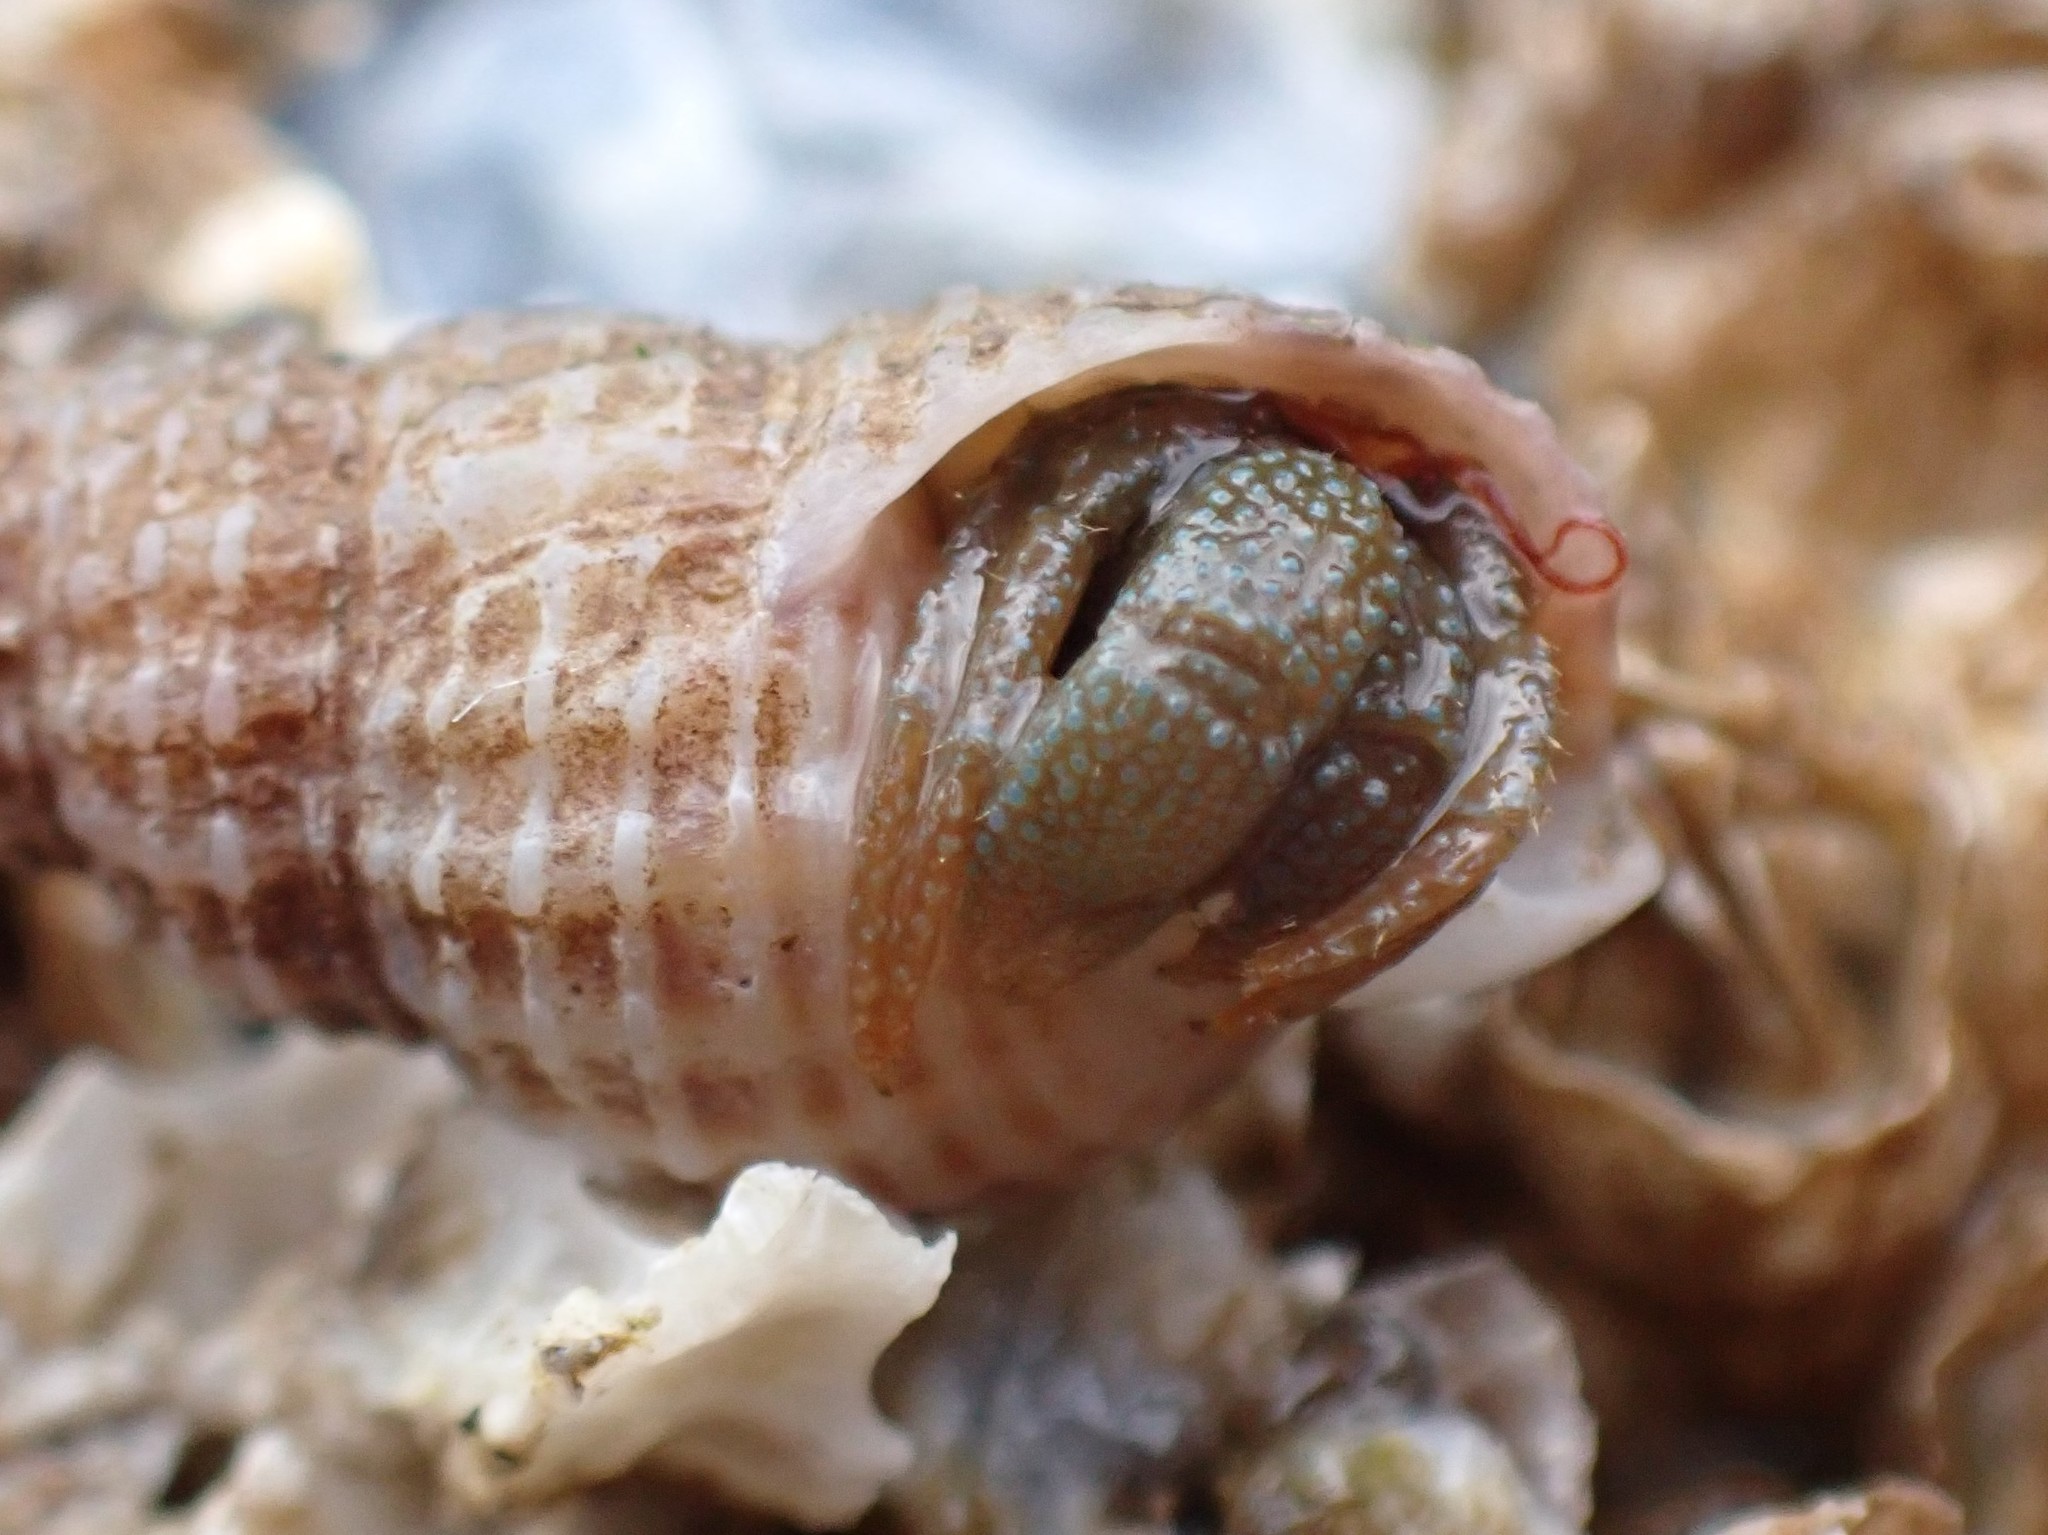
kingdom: Animalia
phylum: Arthropoda
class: Malacostraca
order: Decapoda
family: Paguridae
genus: Pagurus
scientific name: Pagurus granosimanus
